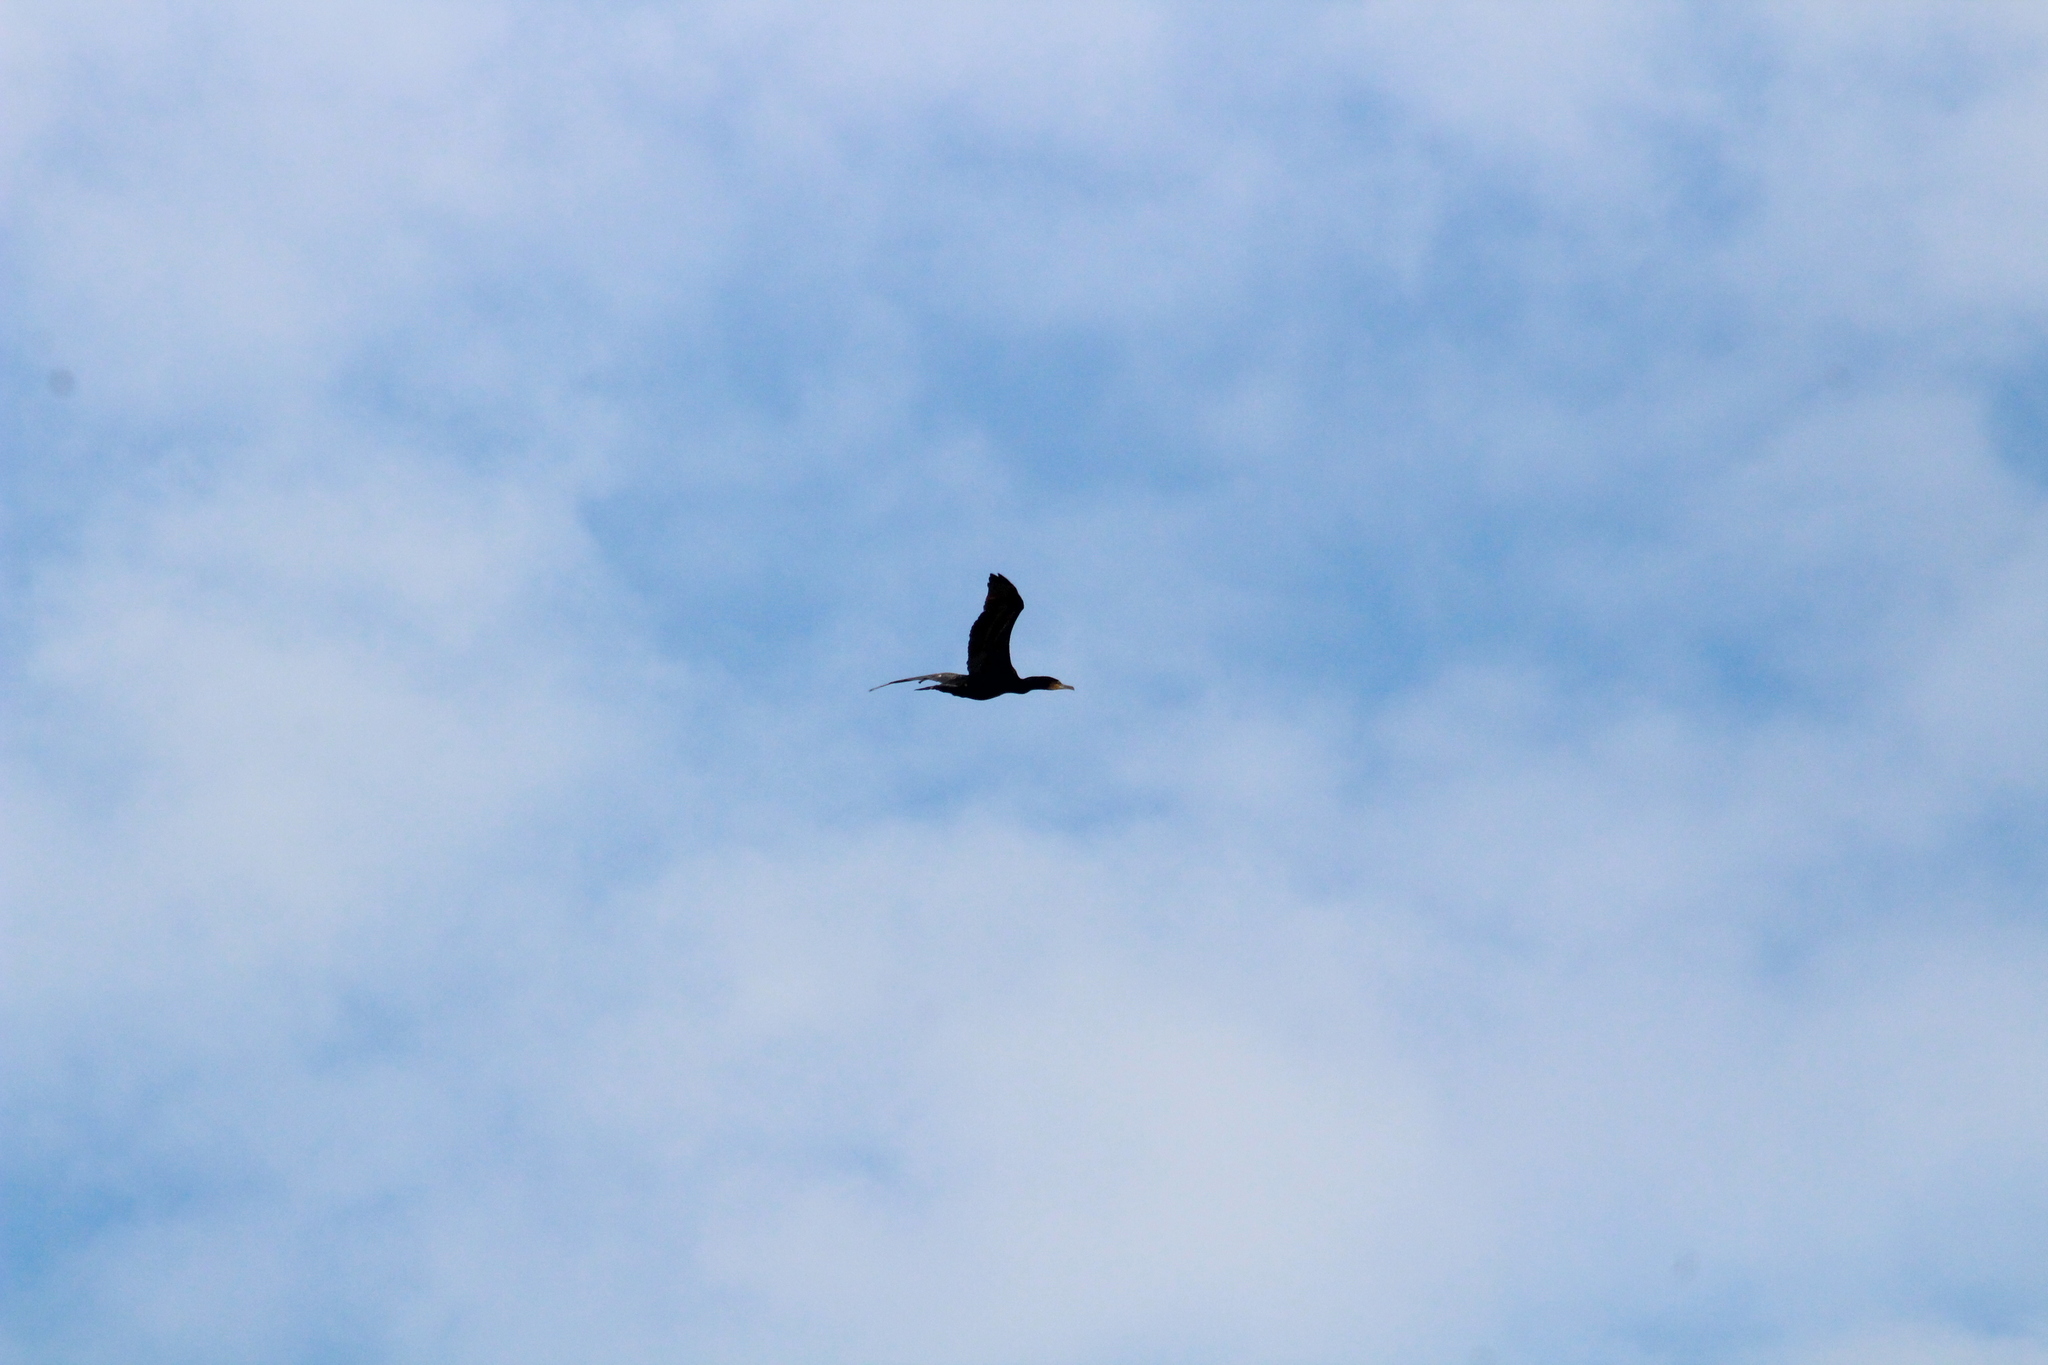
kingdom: Animalia
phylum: Chordata
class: Aves
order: Suliformes
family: Phalacrocoracidae
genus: Phalacrocorax
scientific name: Phalacrocorax carbo
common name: Great cormorant
